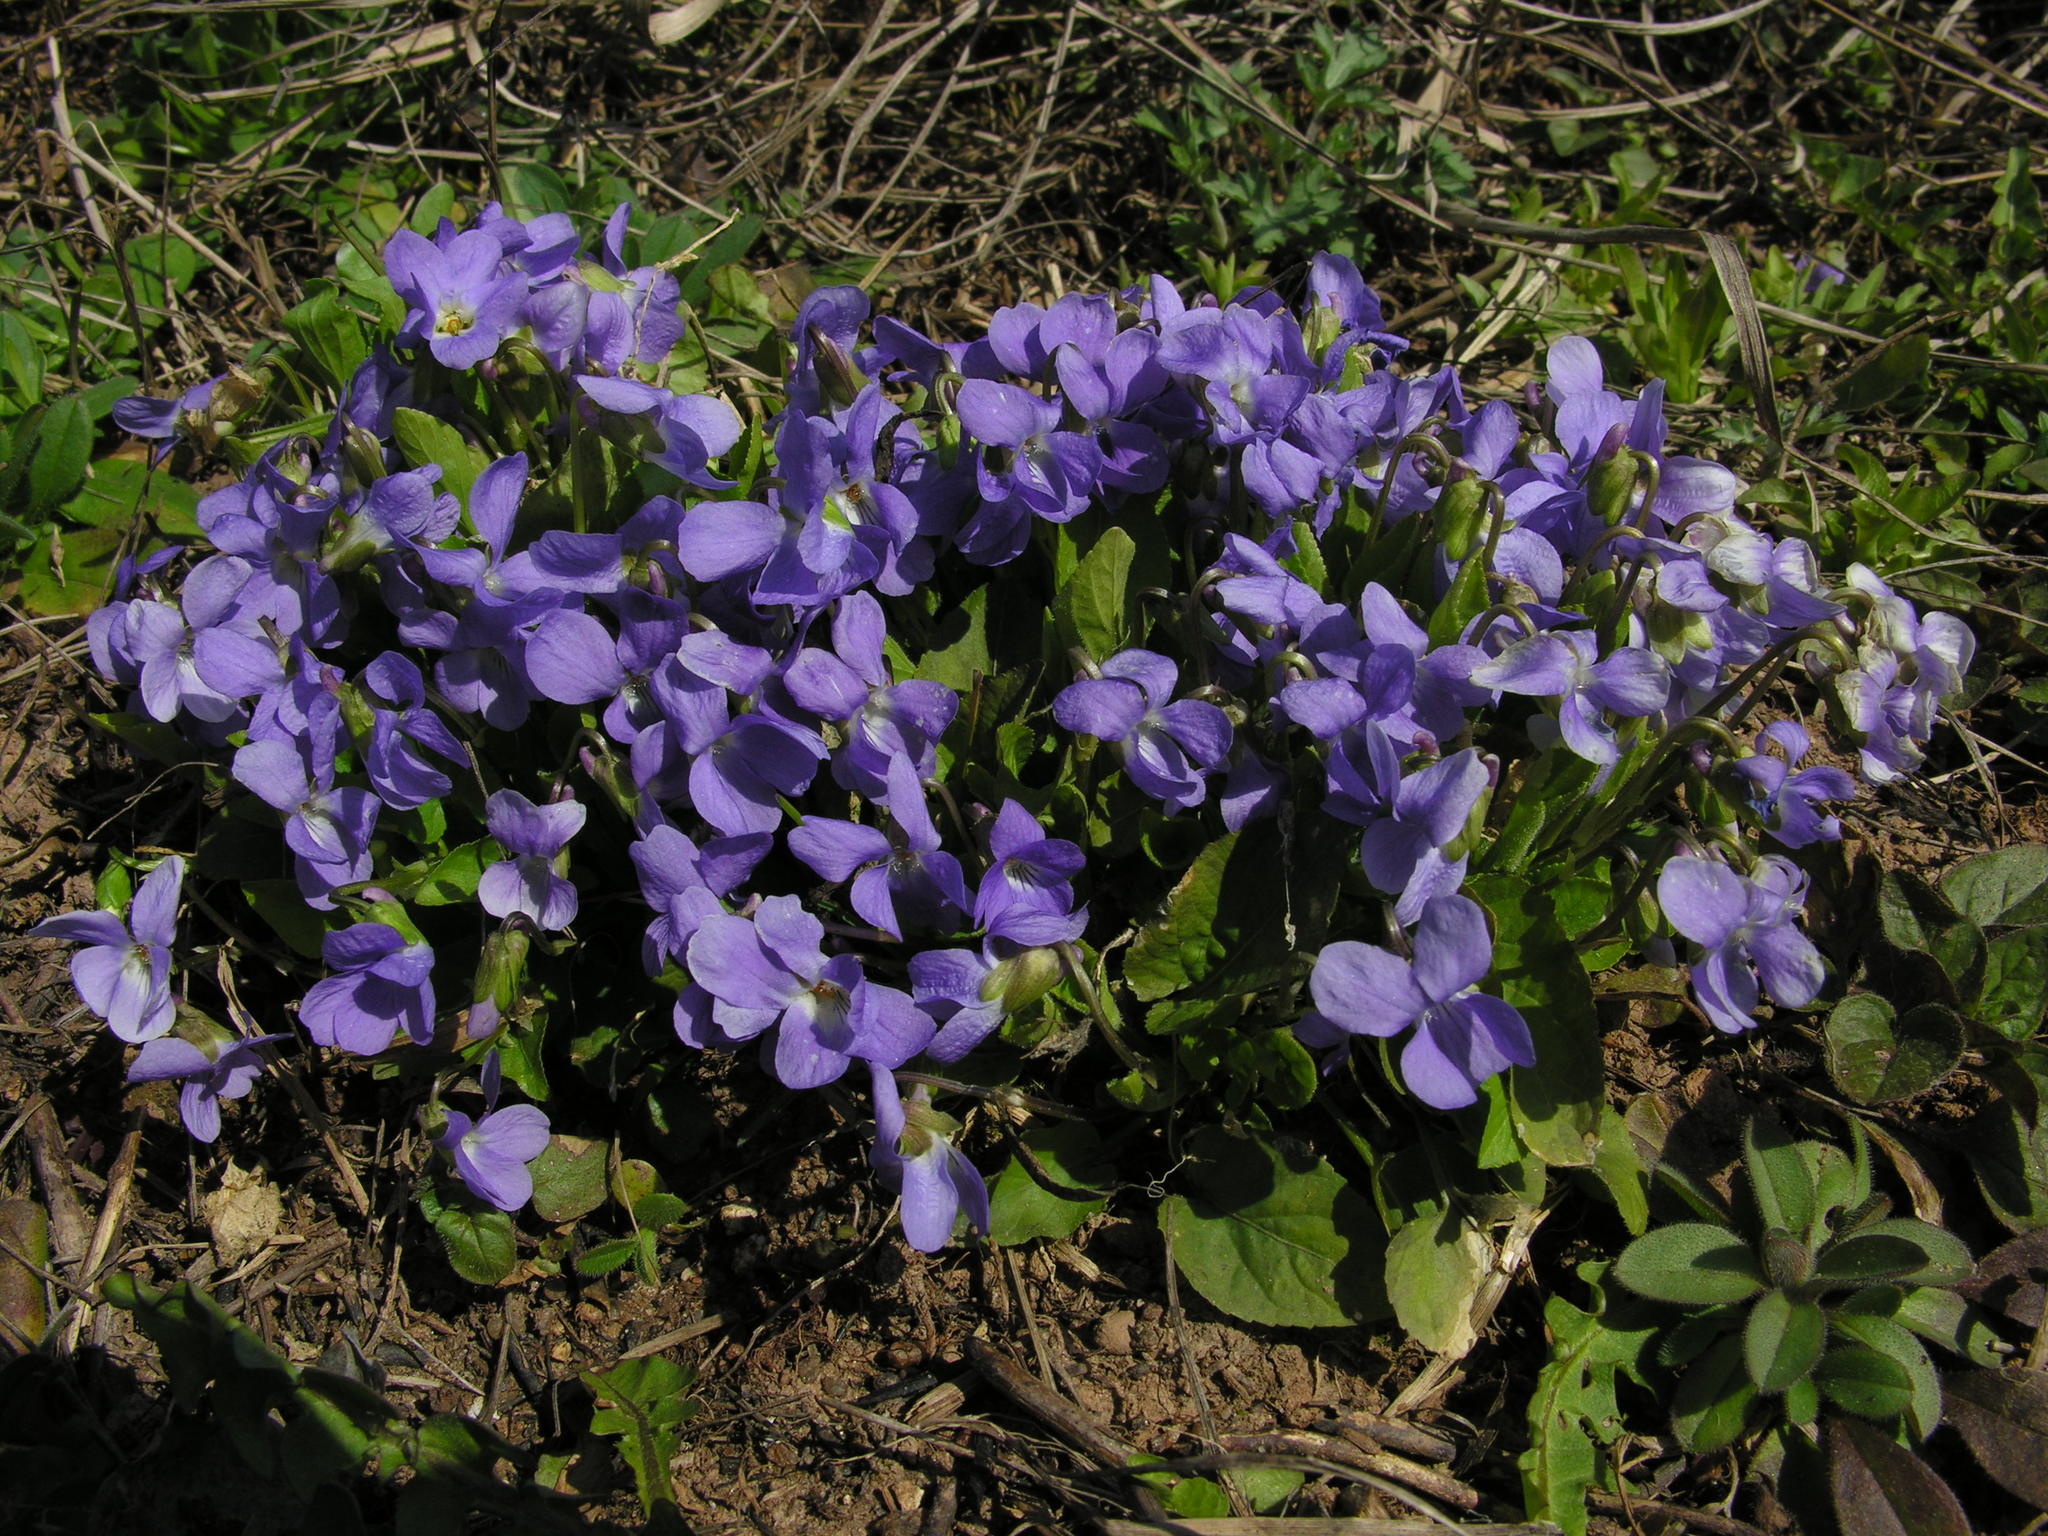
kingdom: Plantae
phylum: Tracheophyta
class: Magnoliopsida
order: Malpighiales
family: Violaceae
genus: Viola
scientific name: Viola hirta
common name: Hairy violet
